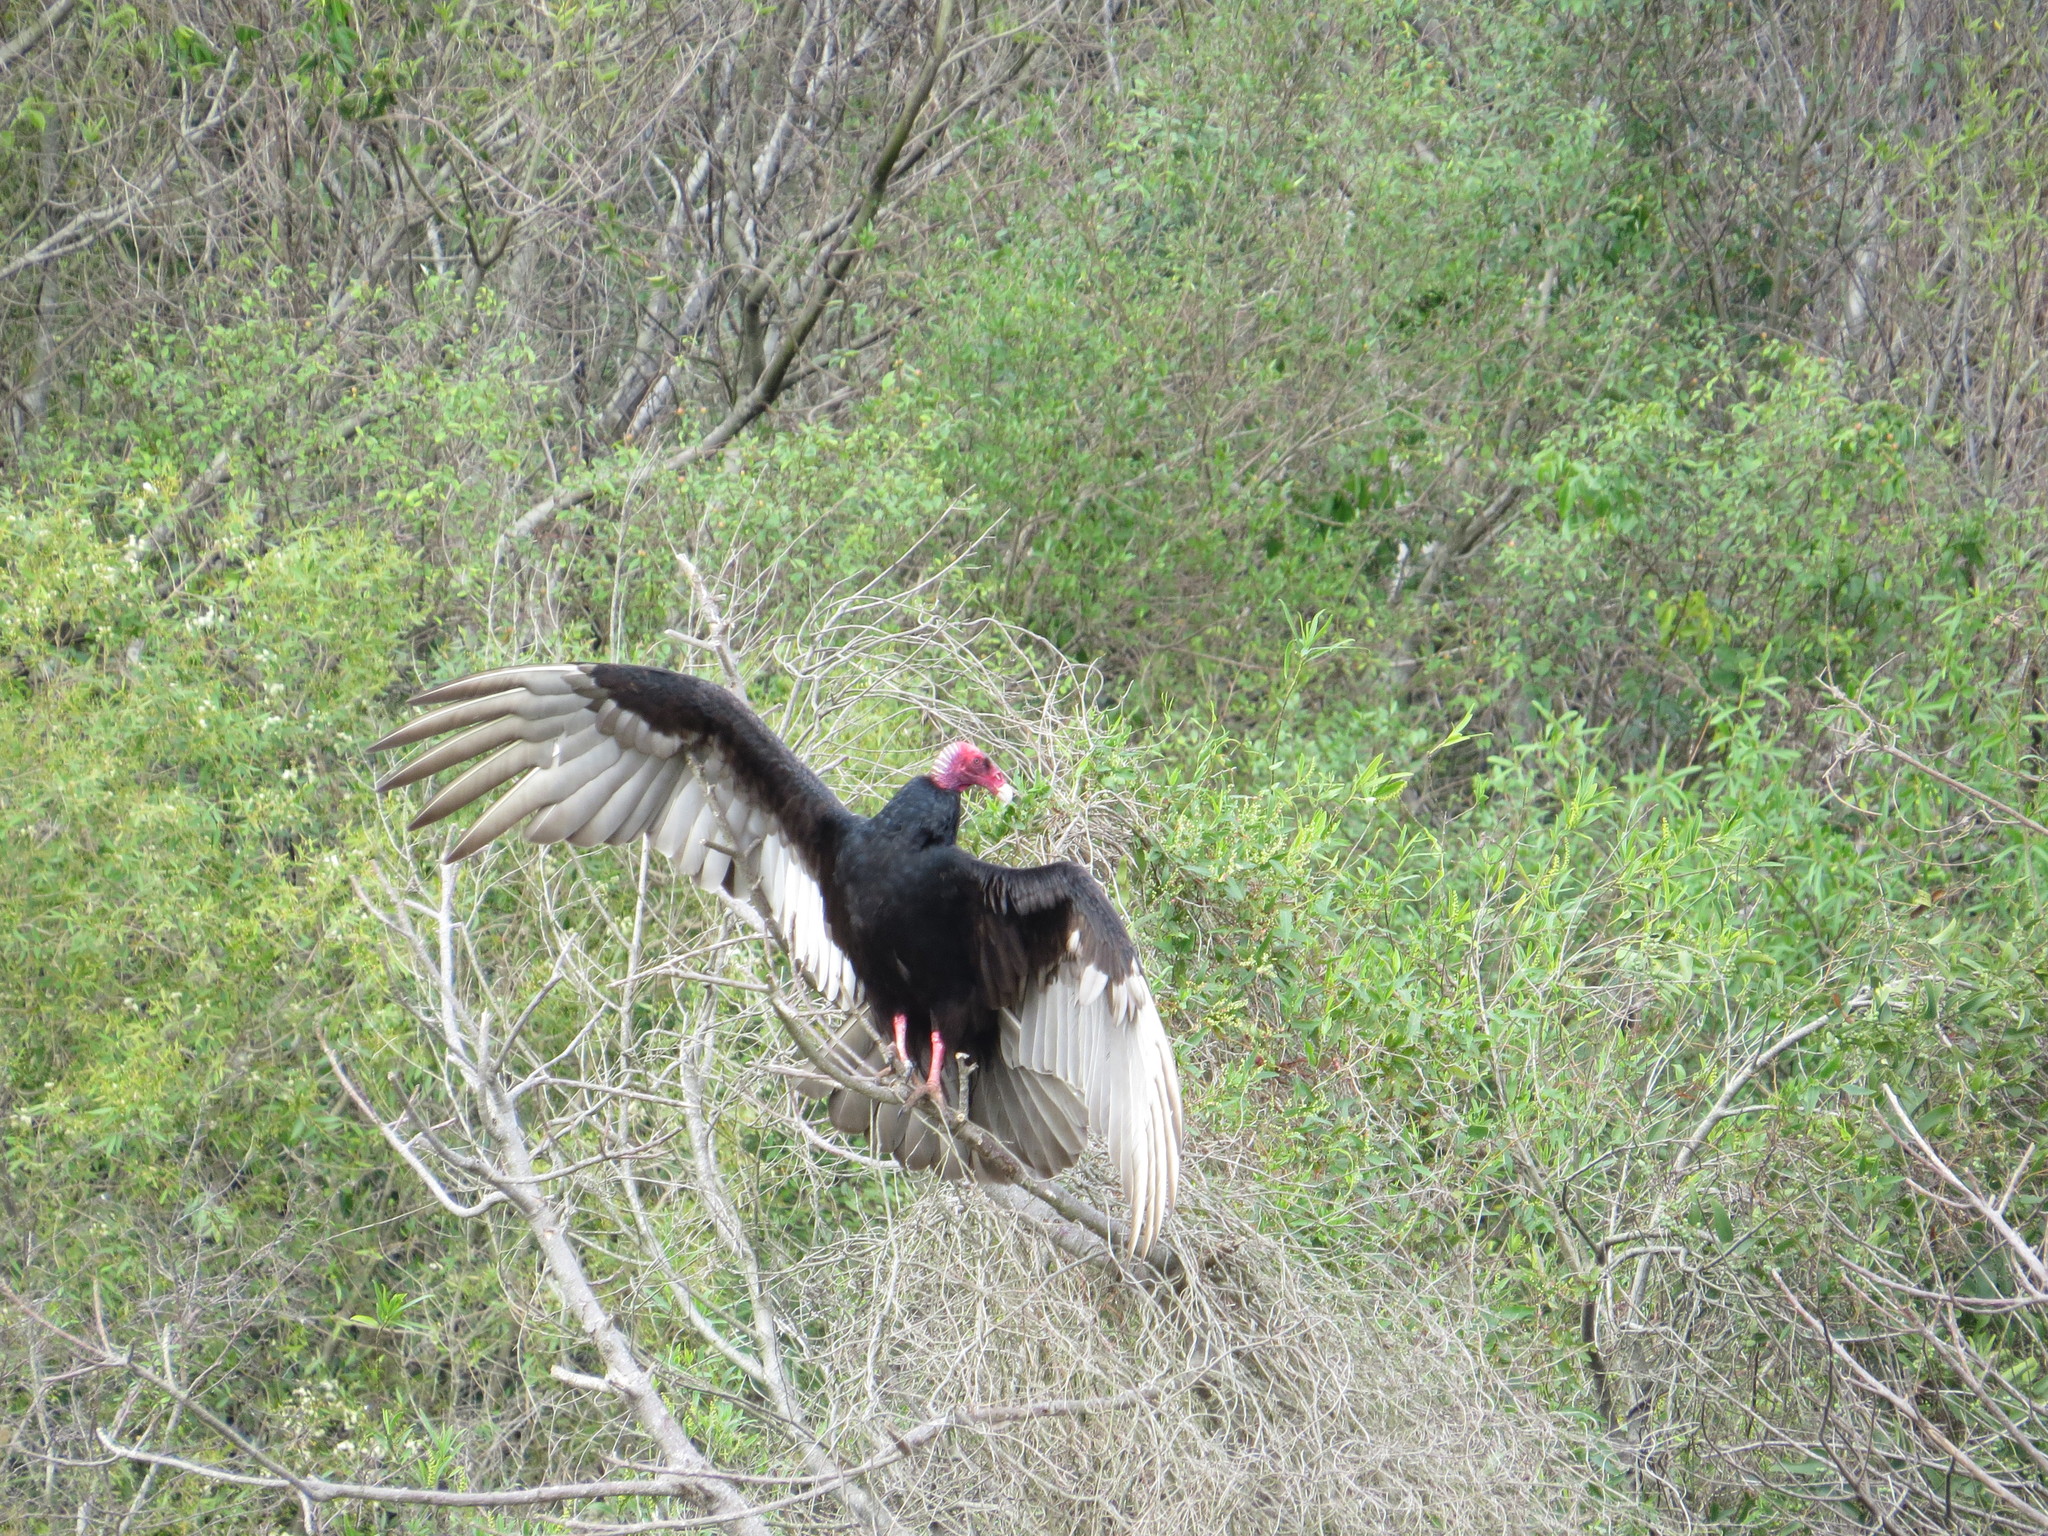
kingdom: Animalia
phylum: Chordata
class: Aves
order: Accipitriformes
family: Cathartidae
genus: Cathartes
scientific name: Cathartes aura
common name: Turkey vulture
